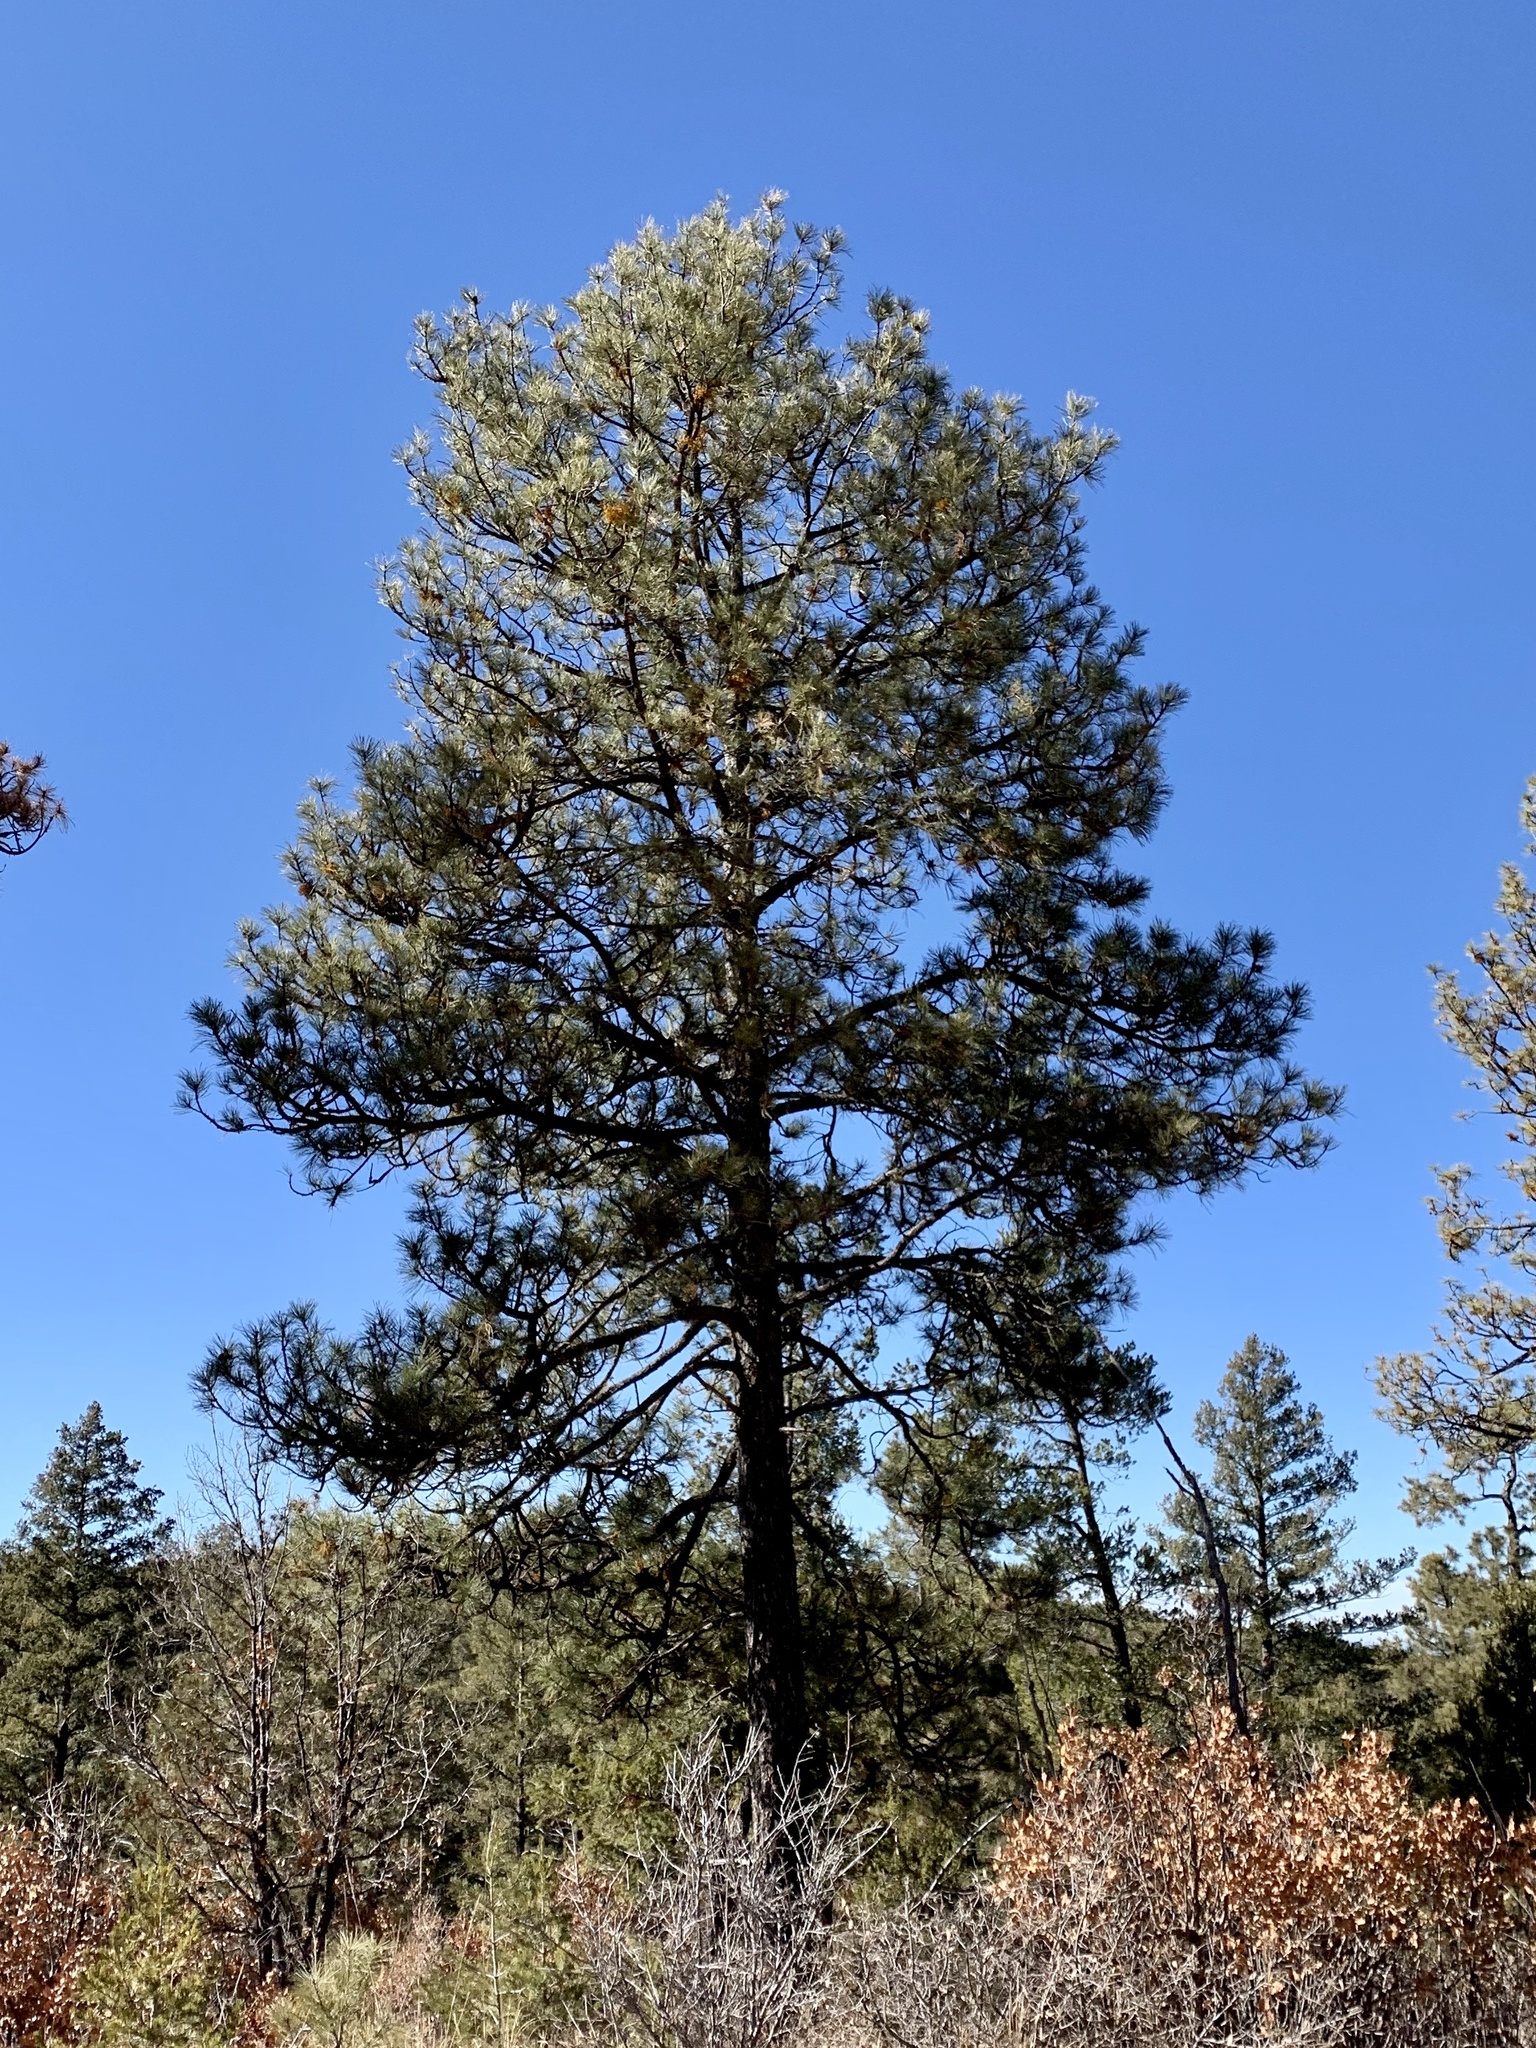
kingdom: Plantae
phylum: Tracheophyta
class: Pinopsida
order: Pinales
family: Pinaceae
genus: Pinus
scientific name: Pinus ponderosa
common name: Western yellow-pine
